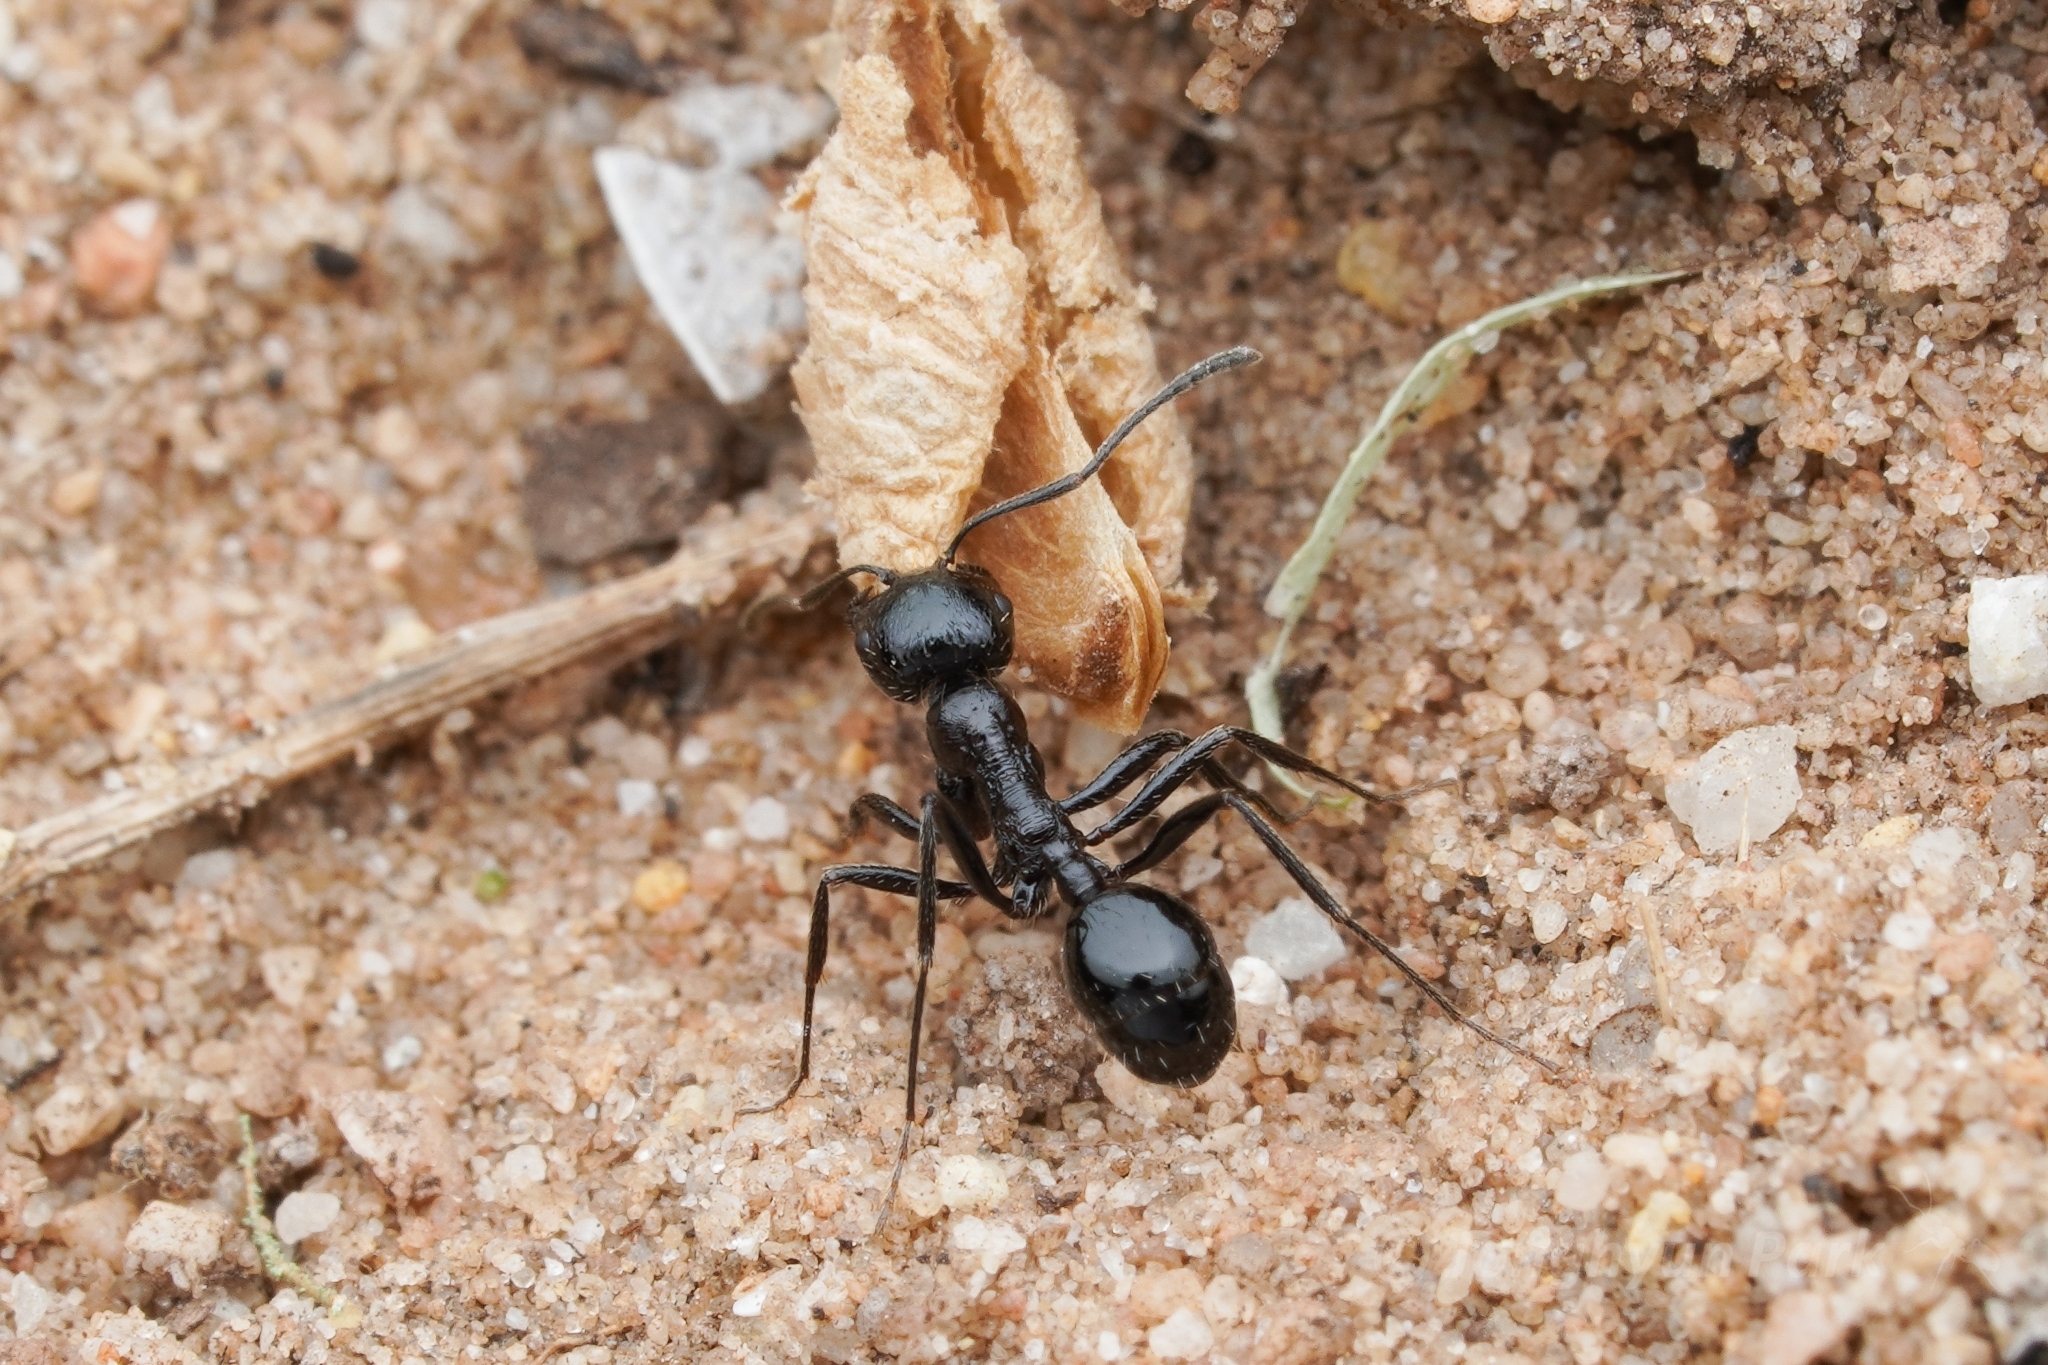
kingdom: Animalia
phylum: Arthropoda
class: Insecta
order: Hymenoptera
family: Formicidae
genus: Messor
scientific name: Messor denticornis
